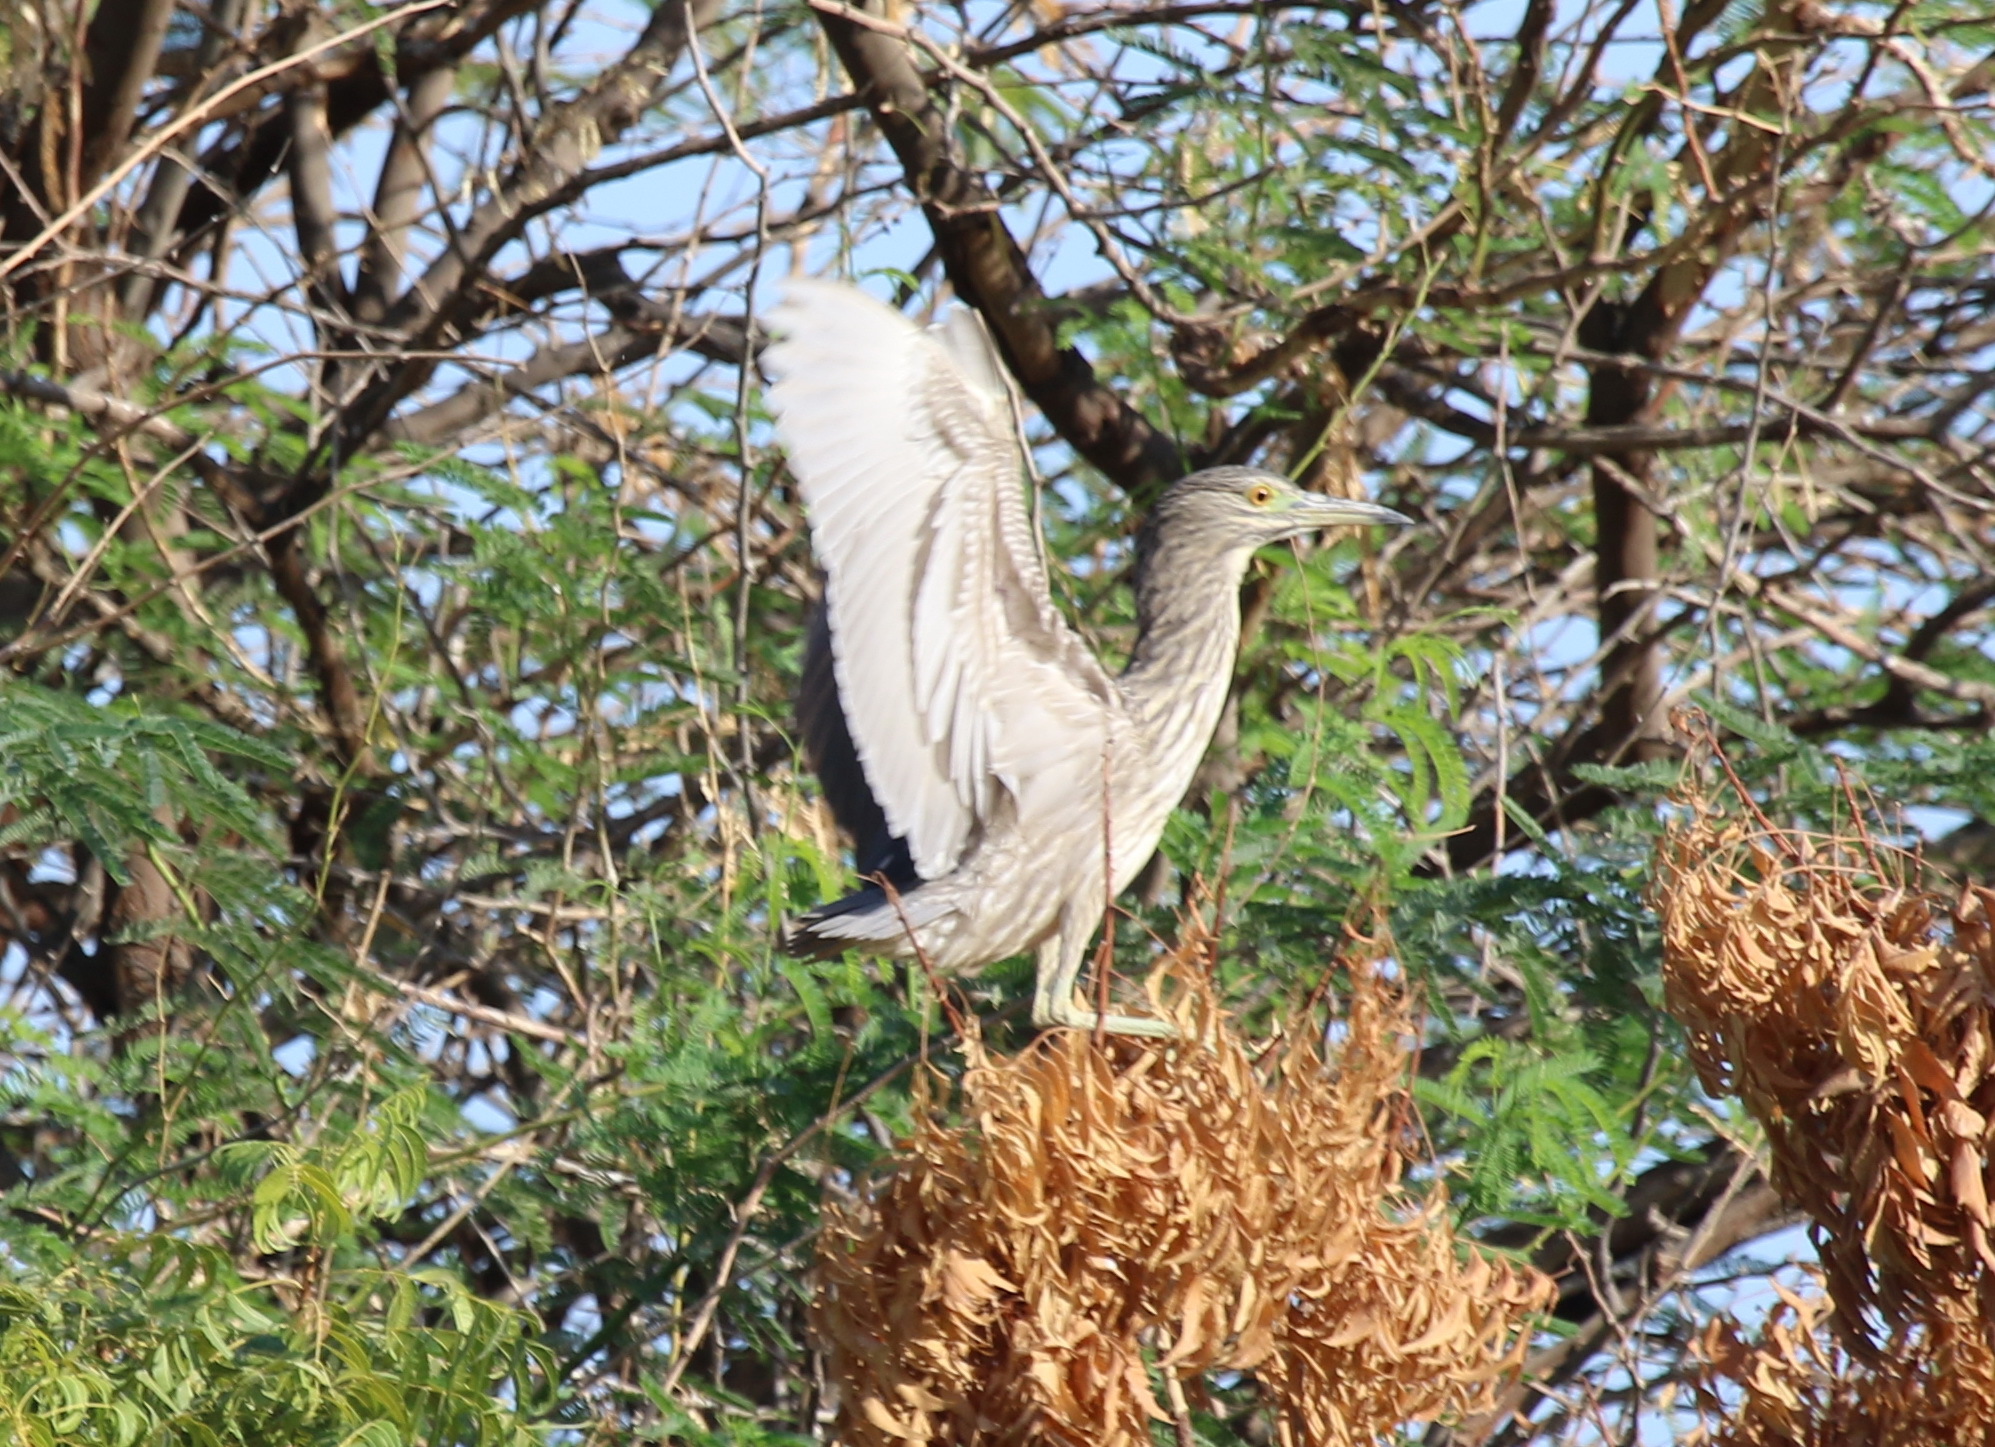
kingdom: Animalia
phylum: Chordata
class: Aves
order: Pelecaniformes
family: Ardeidae
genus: Nycticorax
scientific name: Nycticorax nycticorax
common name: Black-crowned night heron
